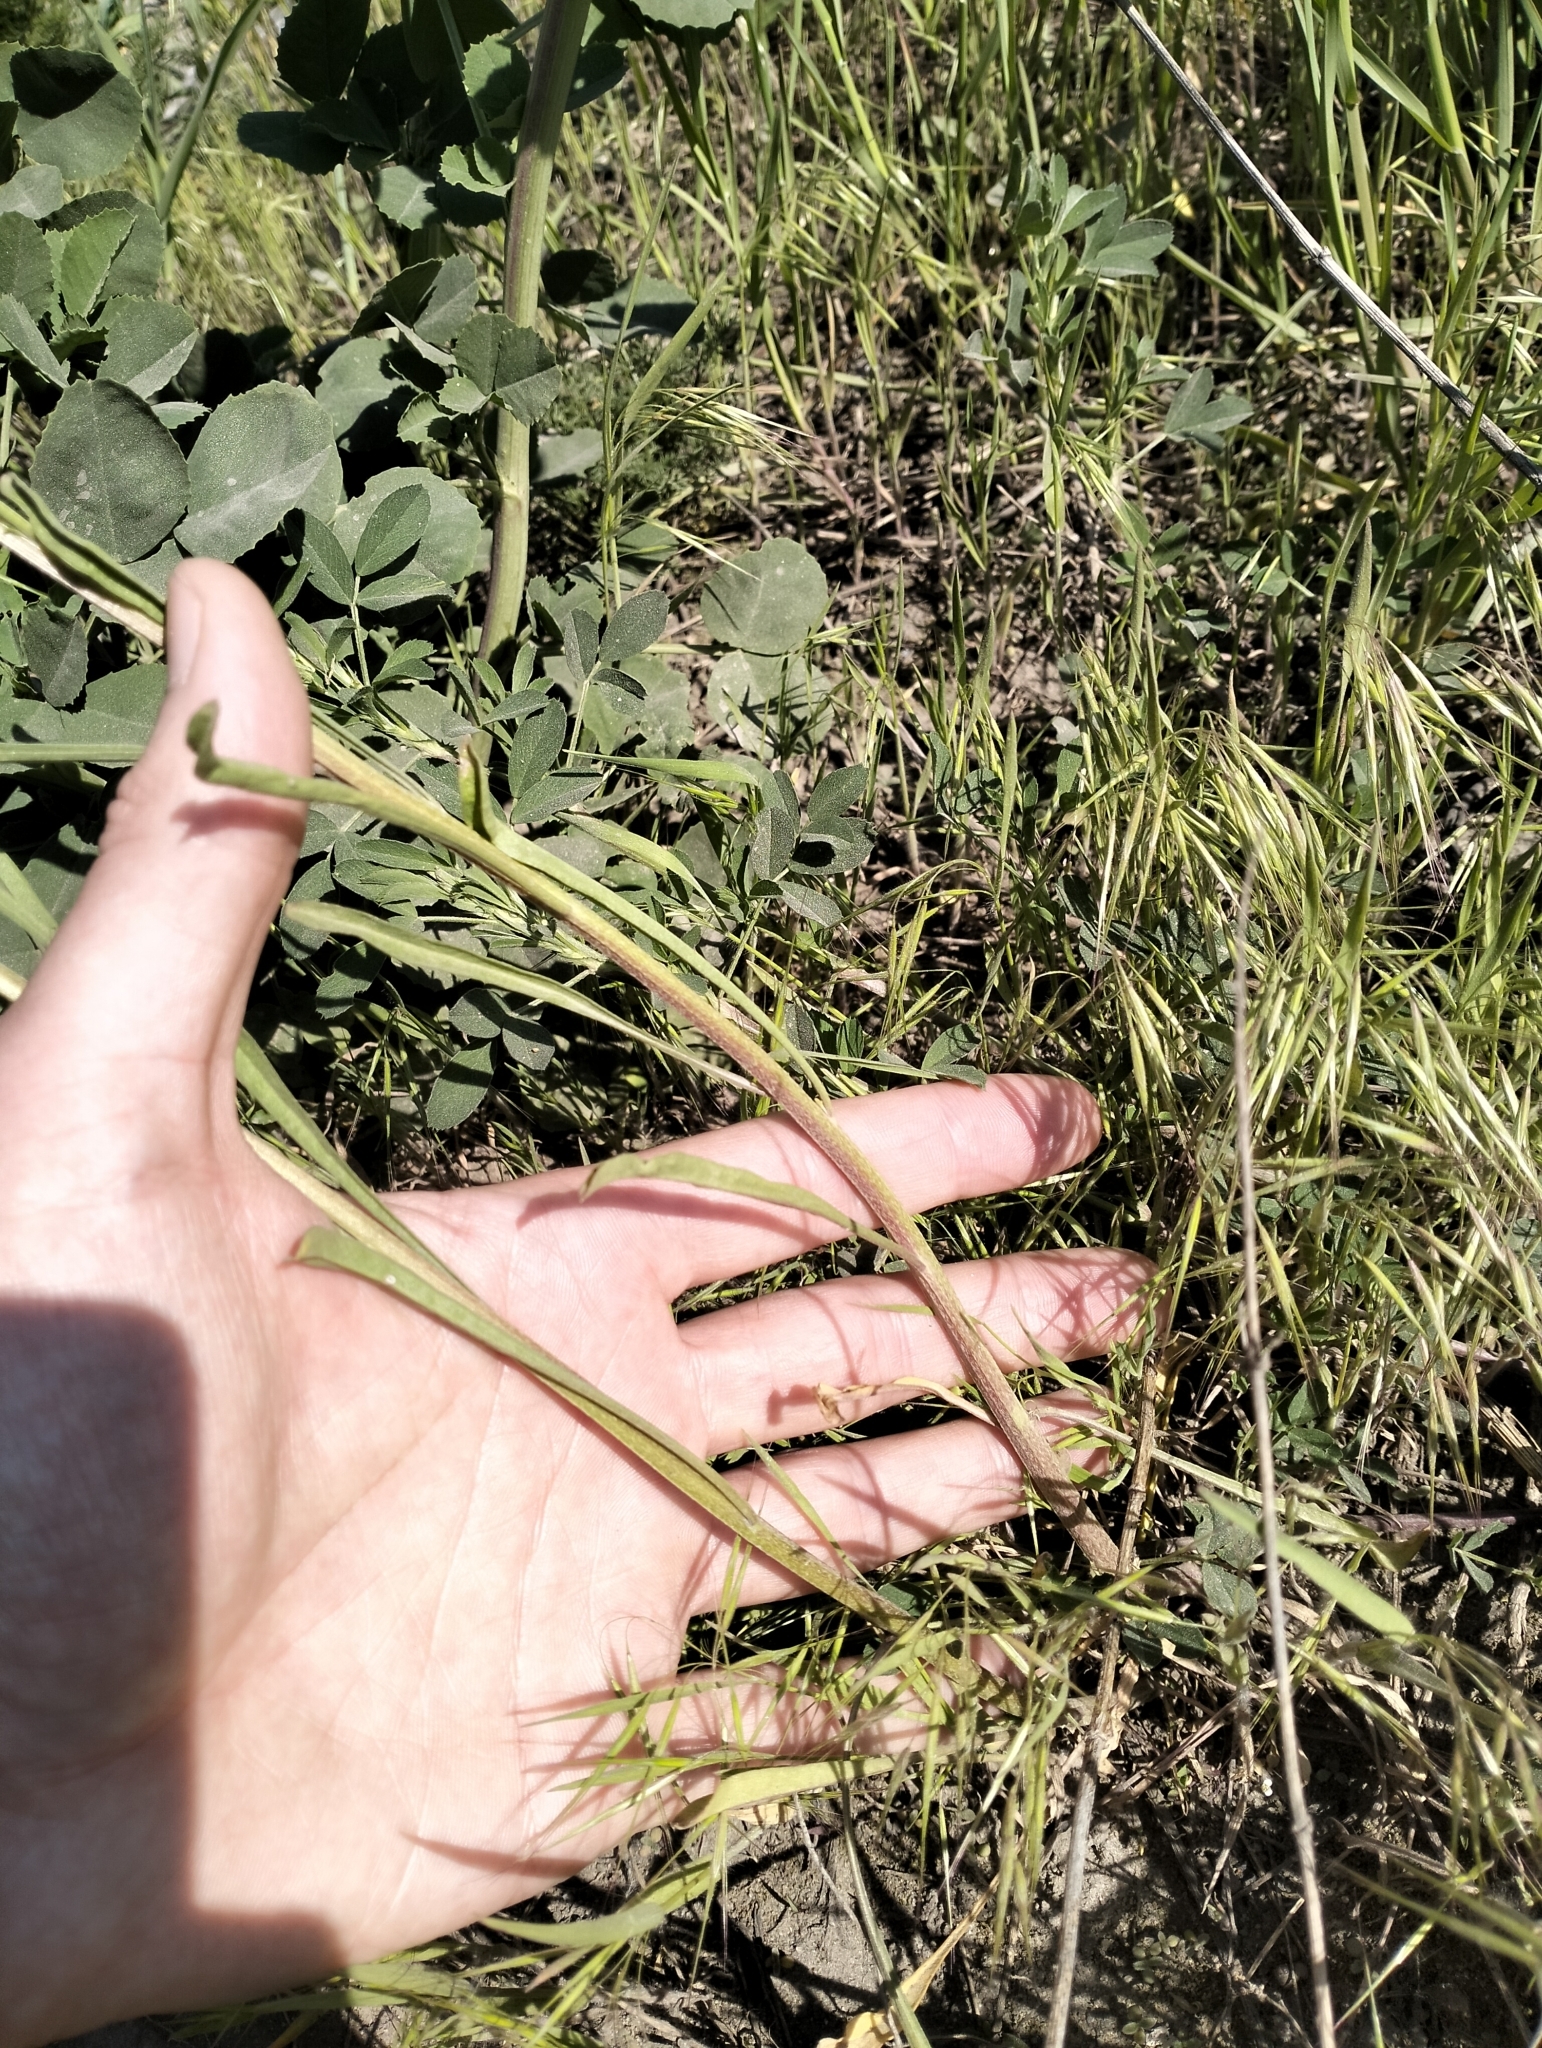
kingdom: Plantae
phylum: Tracheophyta
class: Magnoliopsida
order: Brassicales
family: Brassicaceae
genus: Erysimum
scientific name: Erysimum diffusum
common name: Diffuse wallflower
